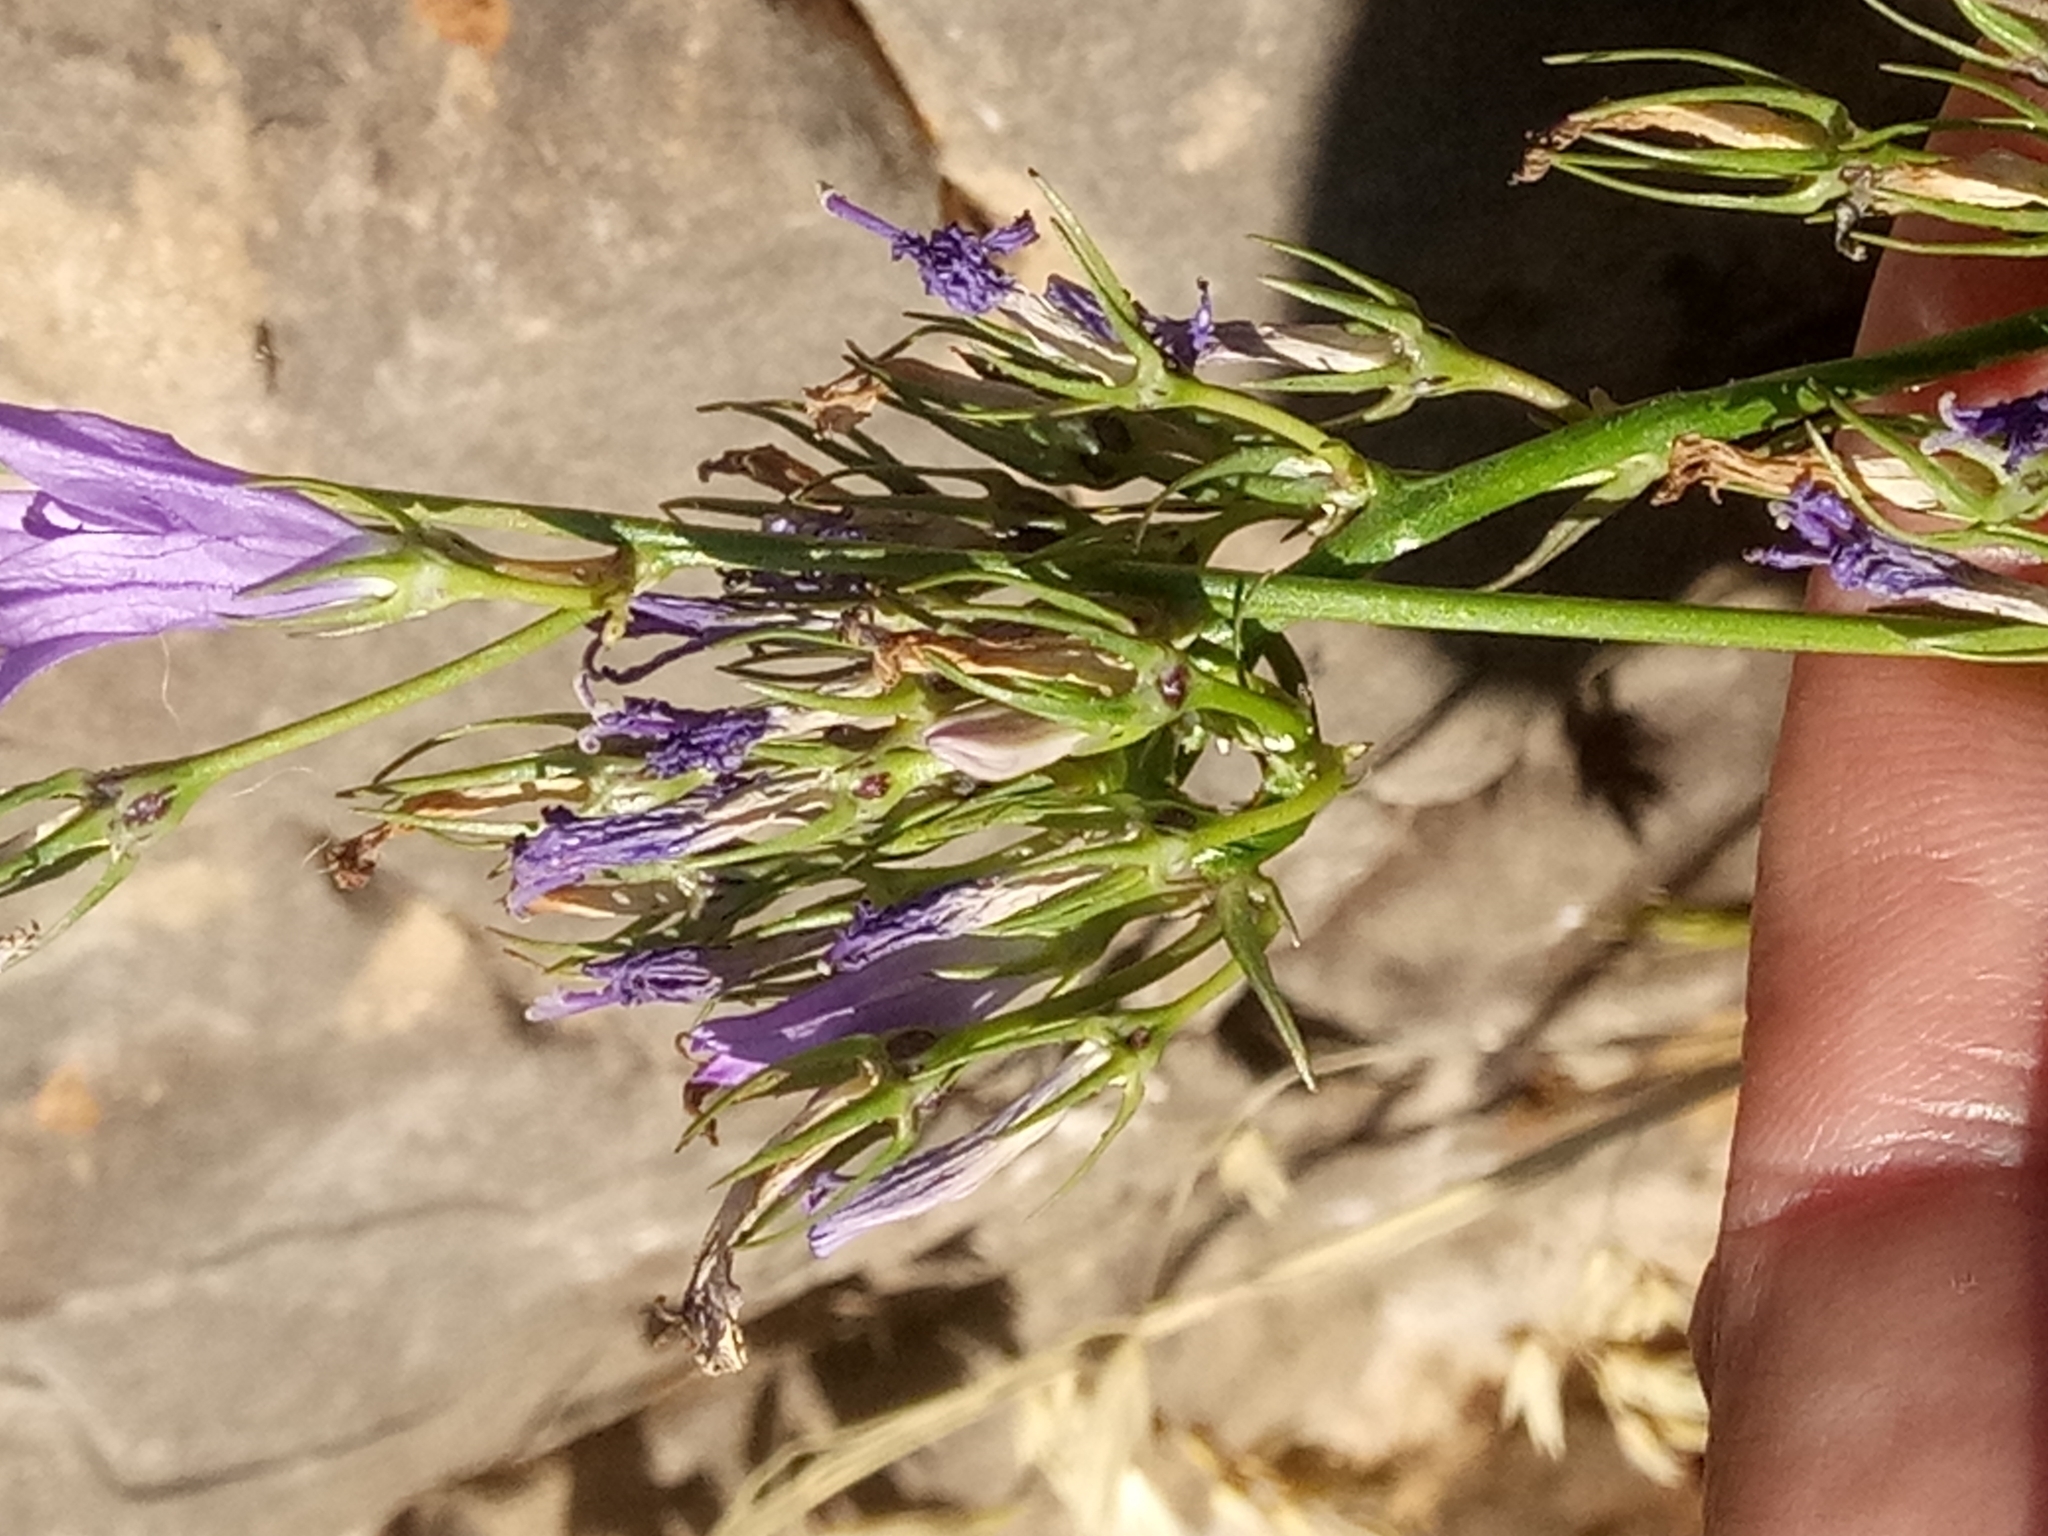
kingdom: Plantae
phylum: Tracheophyta
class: Magnoliopsida
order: Asterales
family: Campanulaceae
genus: Campanula
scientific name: Campanula rapunculus
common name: Rampion bellflower
